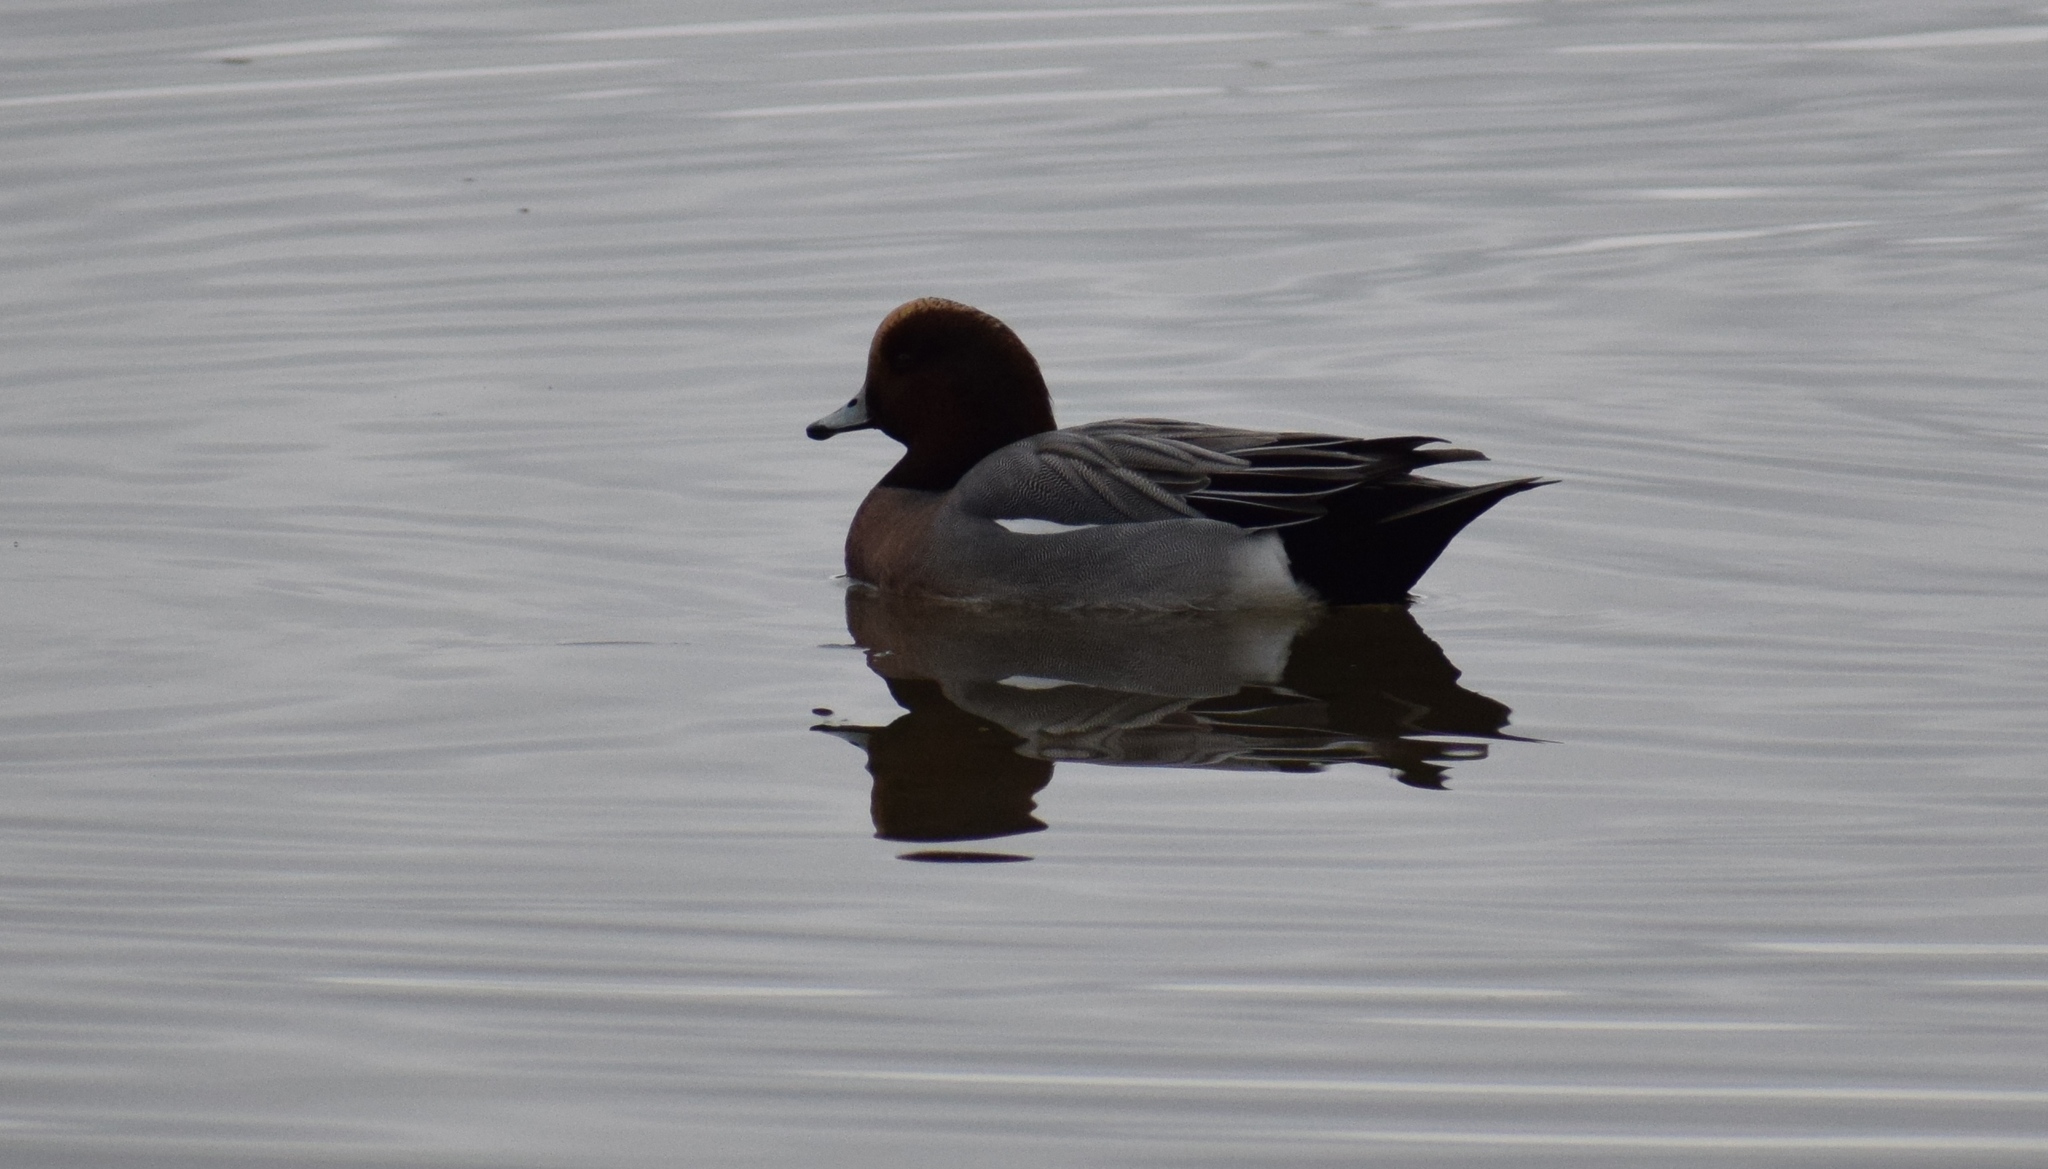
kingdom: Animalia
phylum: Chordata
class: Aves
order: Anseriformes
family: Anatidae
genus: Mareca
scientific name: Mareca penelope
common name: Eurasian wigeon
